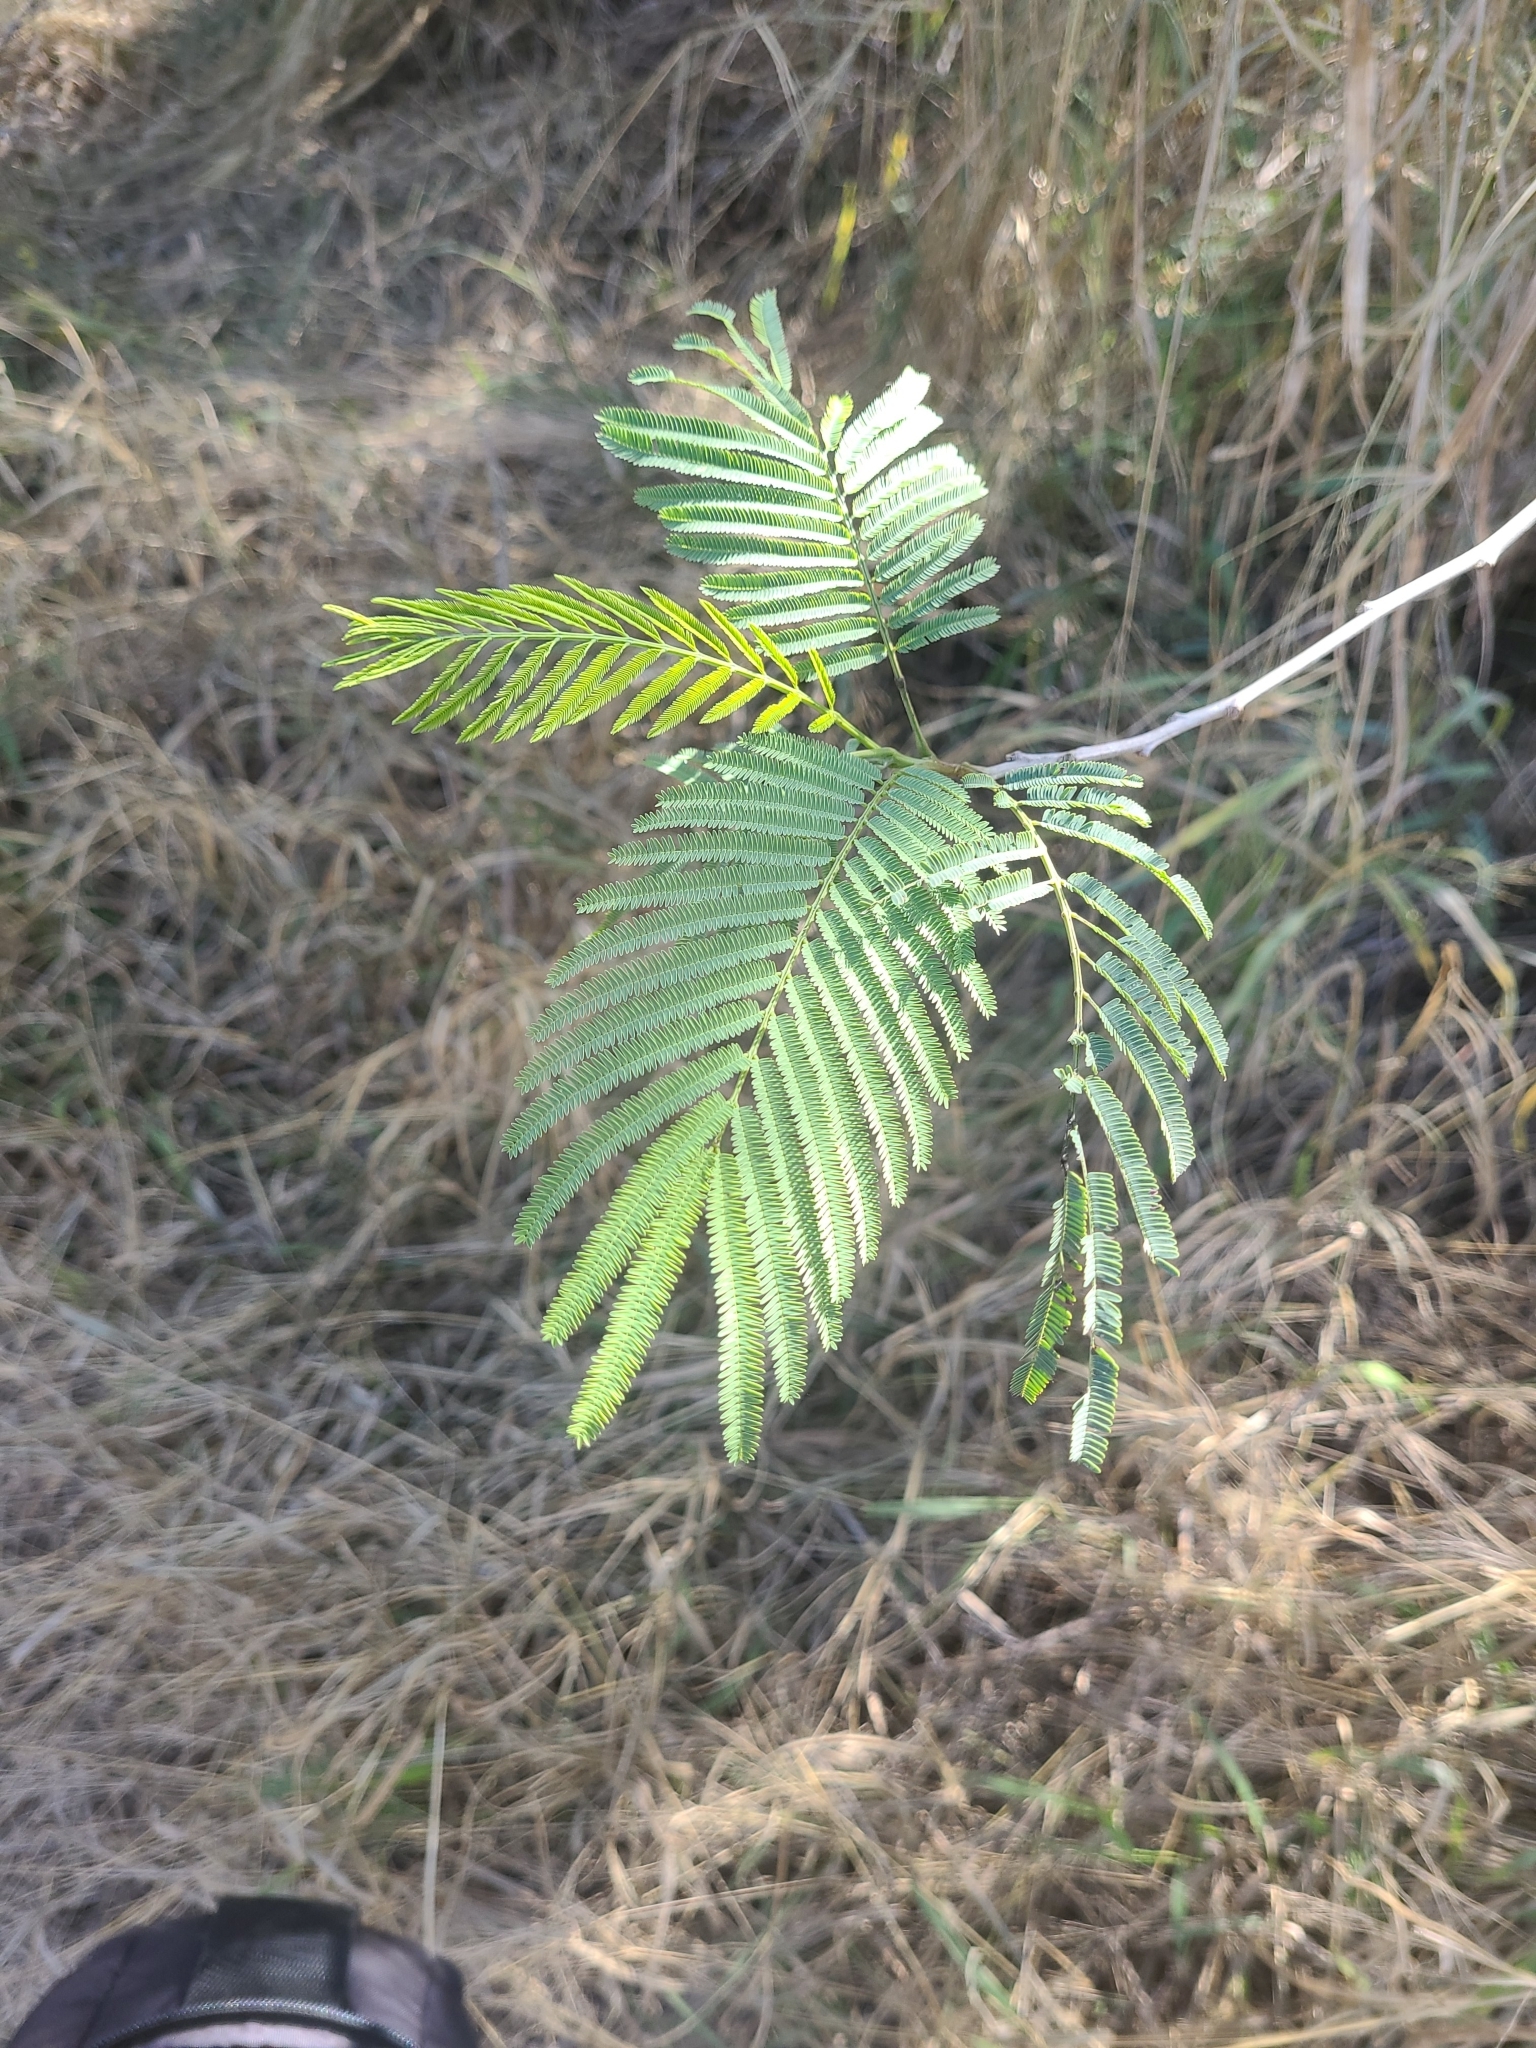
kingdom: Plantae
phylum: Tracheophyta
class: Magnoliopsida
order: Fabales
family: Fabaceae
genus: Leucaena
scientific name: Leucaena pulverulenta
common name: Great leadtree
